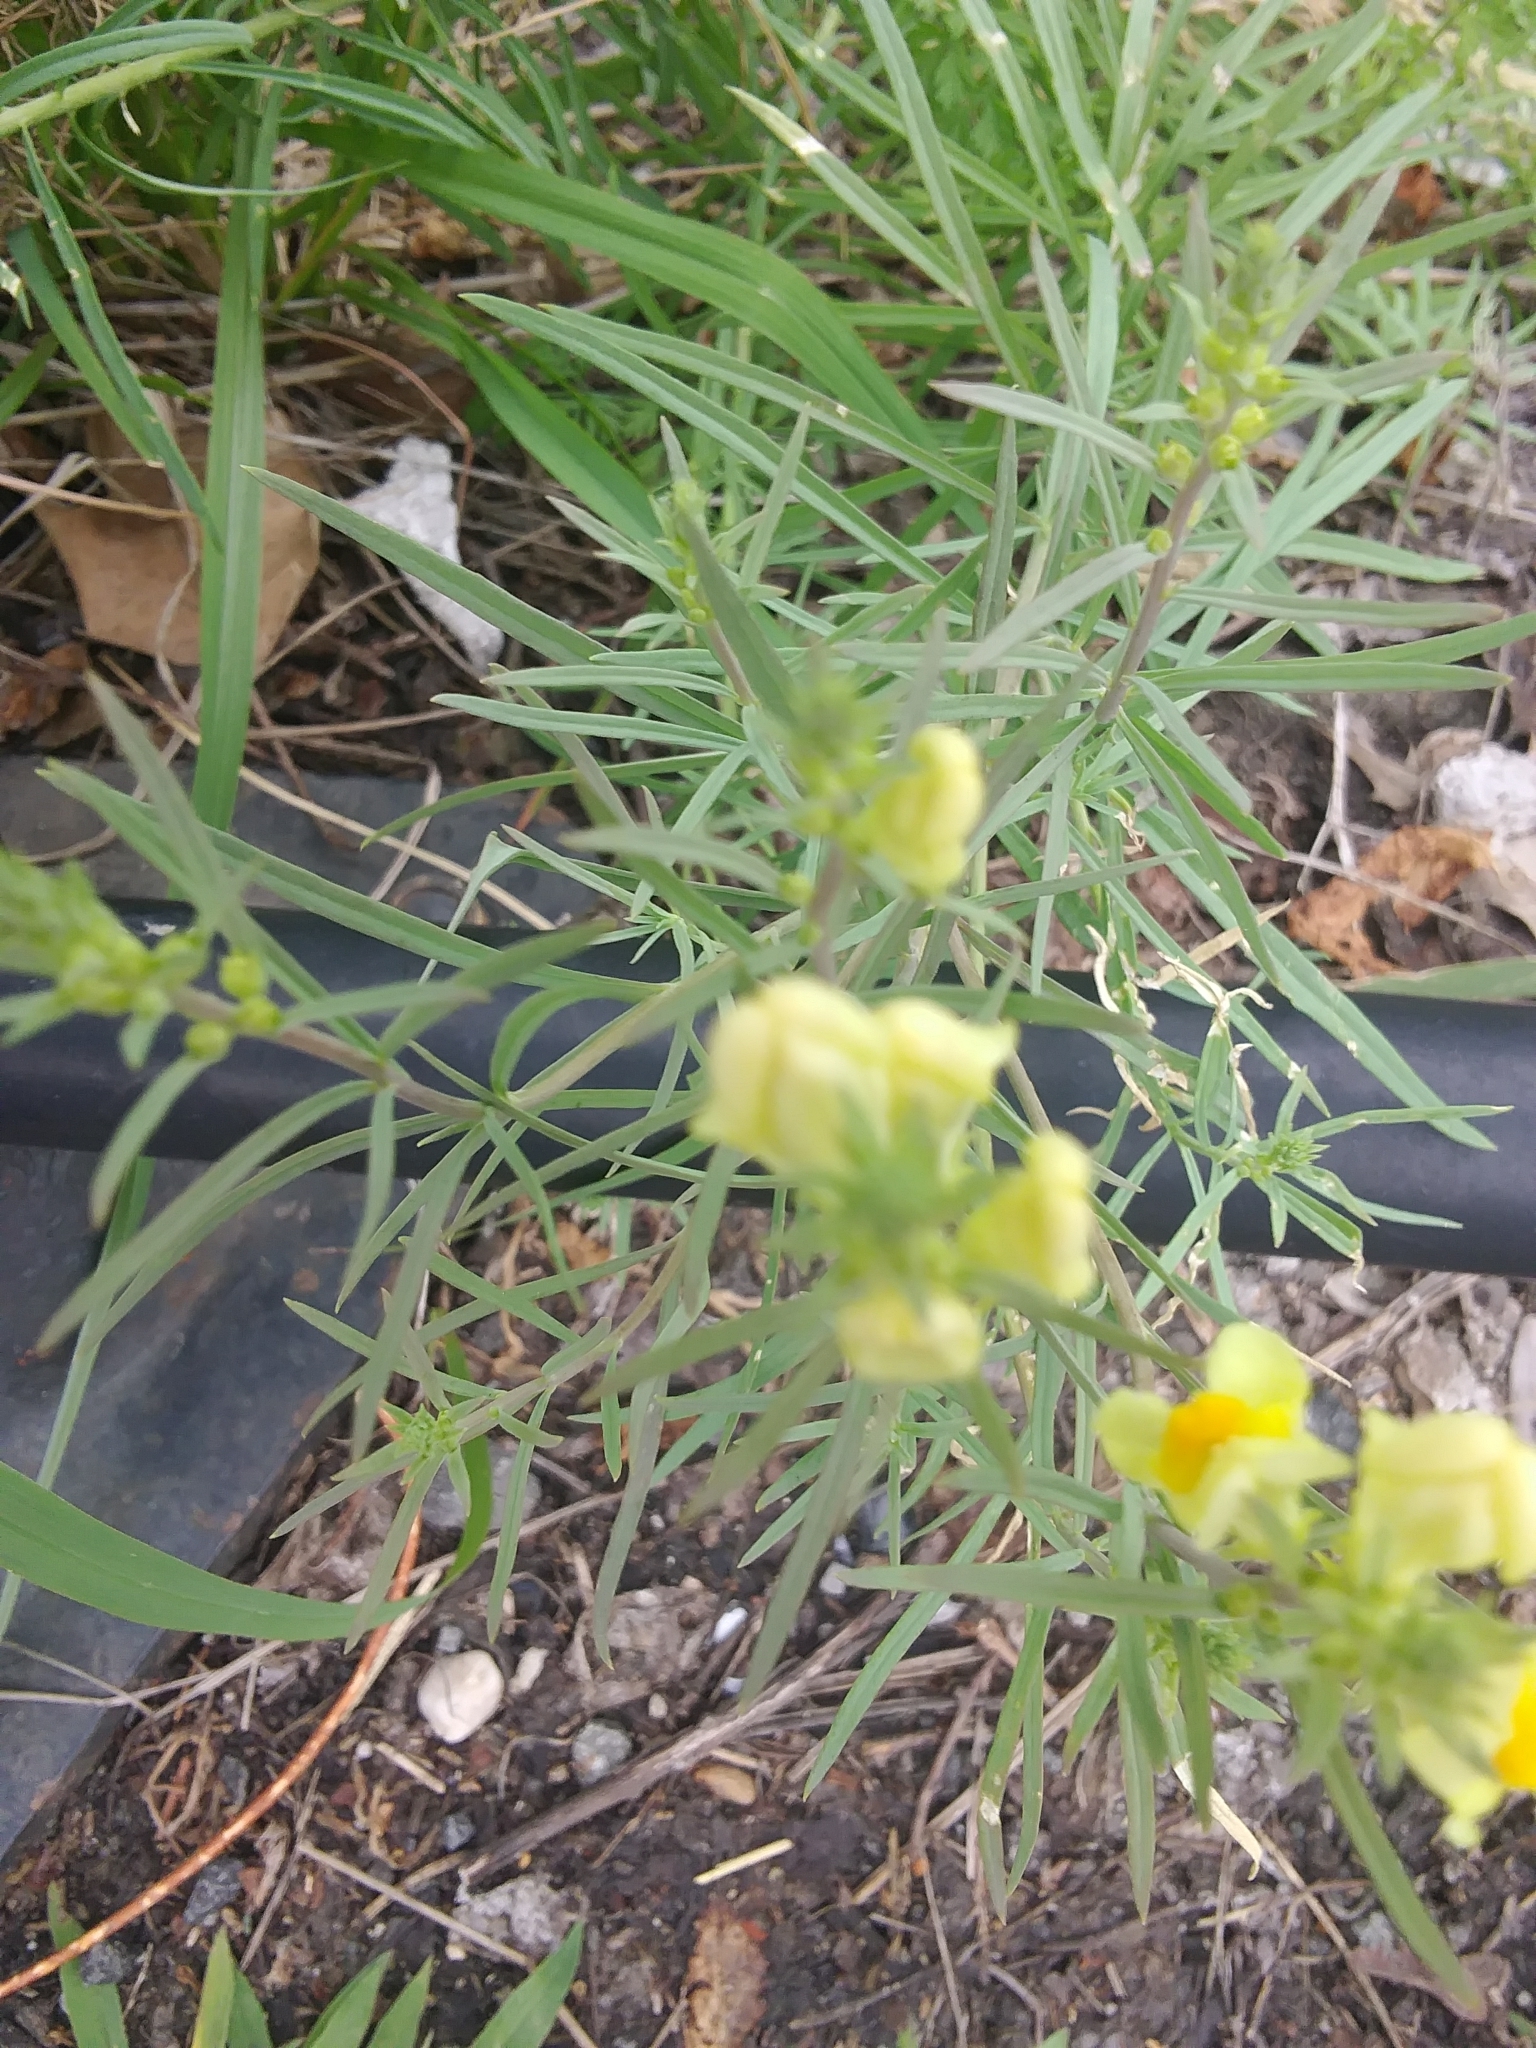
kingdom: Plantae
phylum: Tracheophyta
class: Magnoliopsida
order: Lamiales
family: Plantaginaceae
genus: Linaria
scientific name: Linaria vulgaris
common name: Butter and eggs
